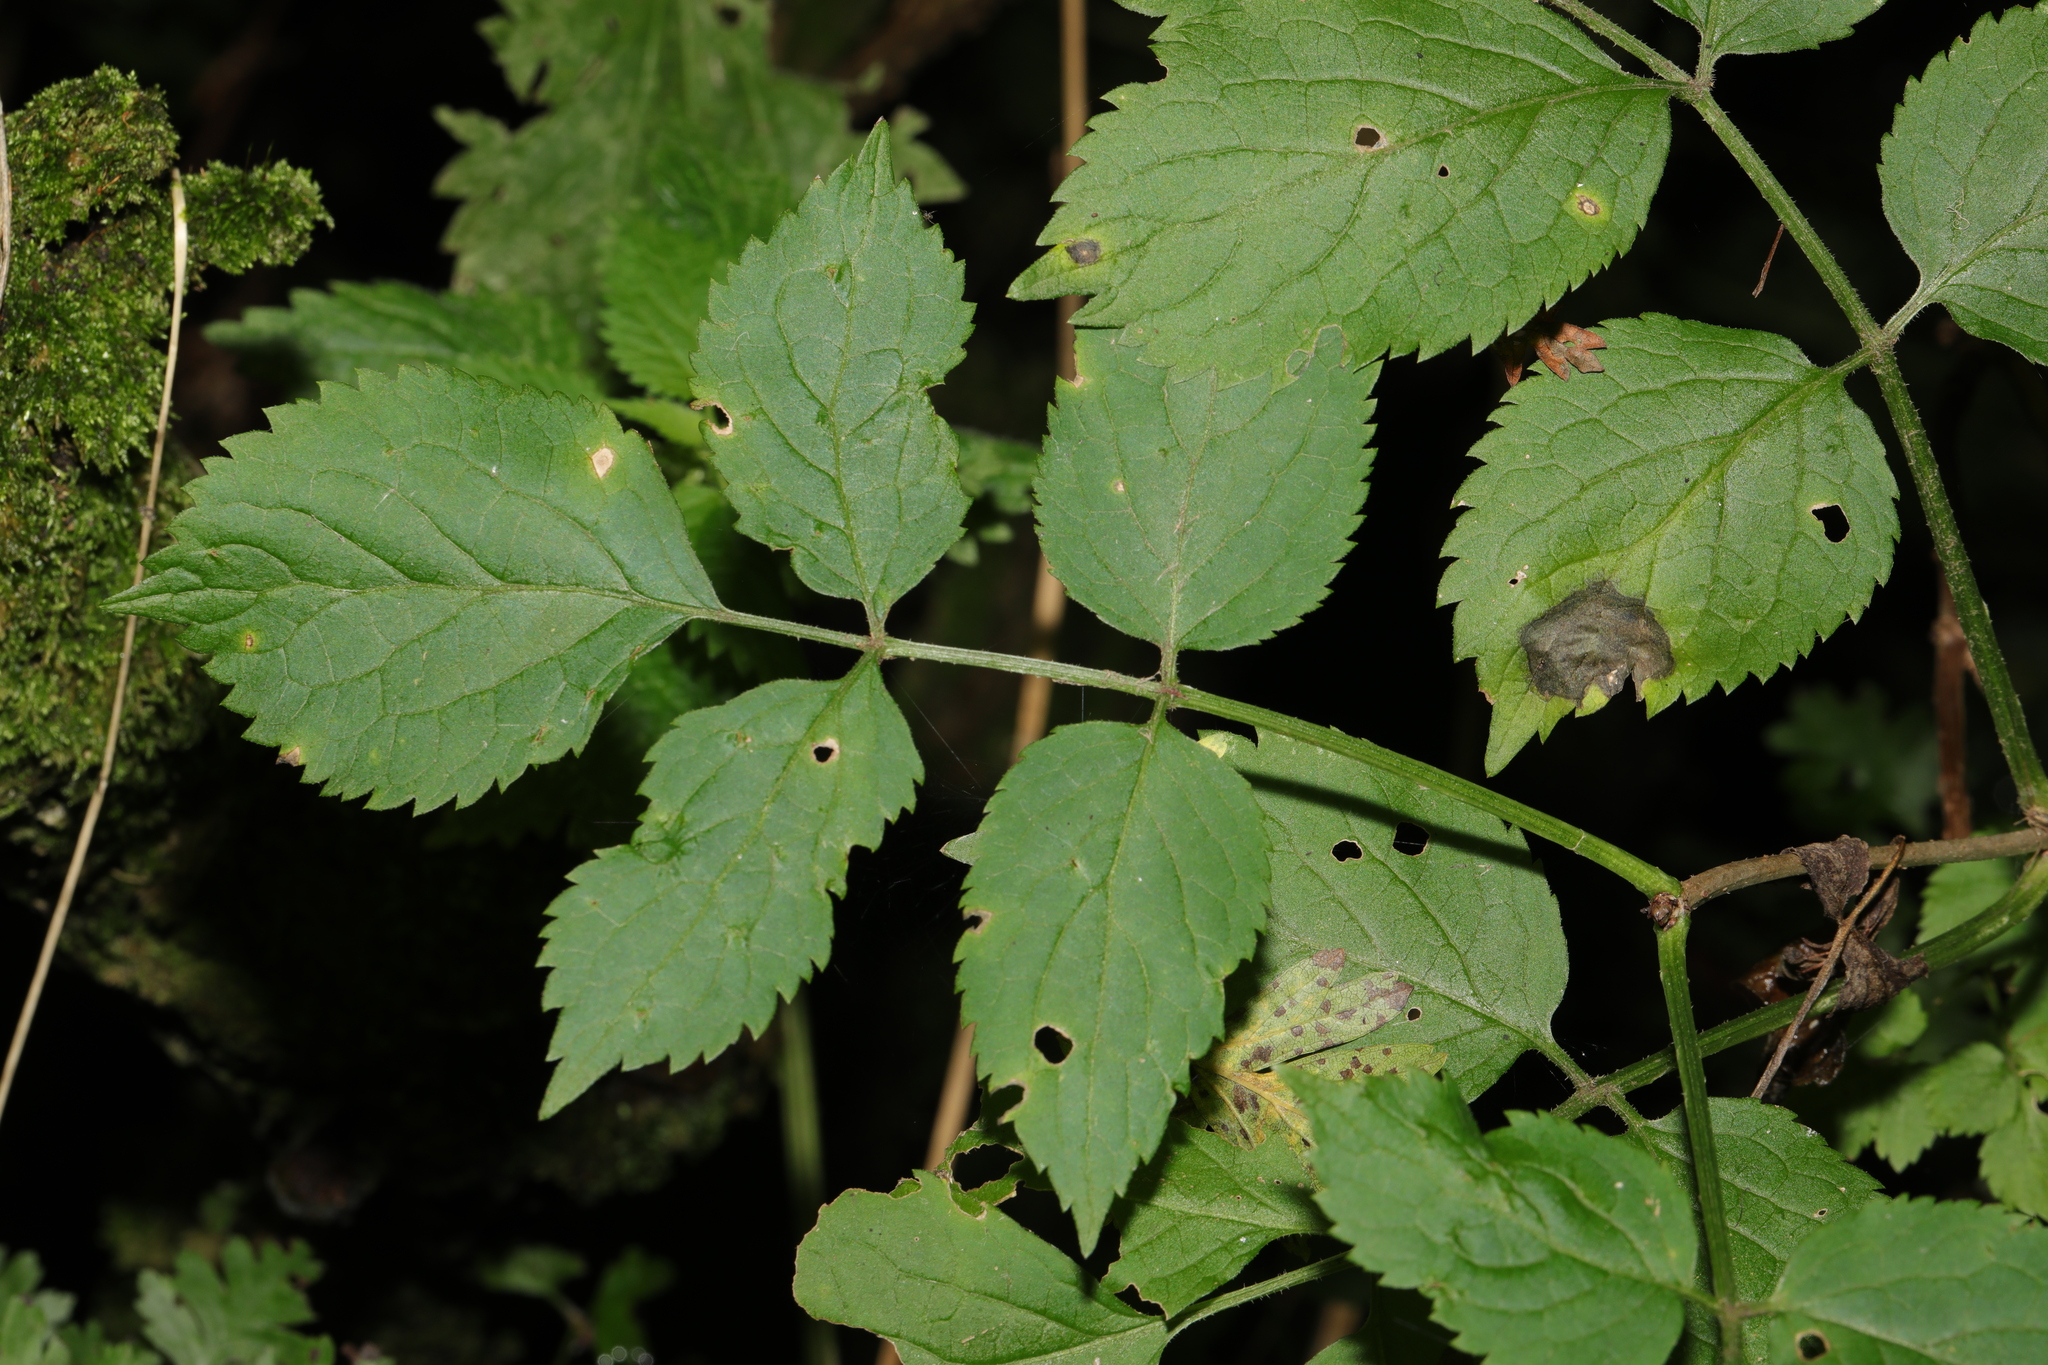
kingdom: Plantae
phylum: Tracheophyta
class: Magnoliopsida
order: Dipsacales
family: Viburnaceae
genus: Sambucus
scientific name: Sambucus nigra
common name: Elder
